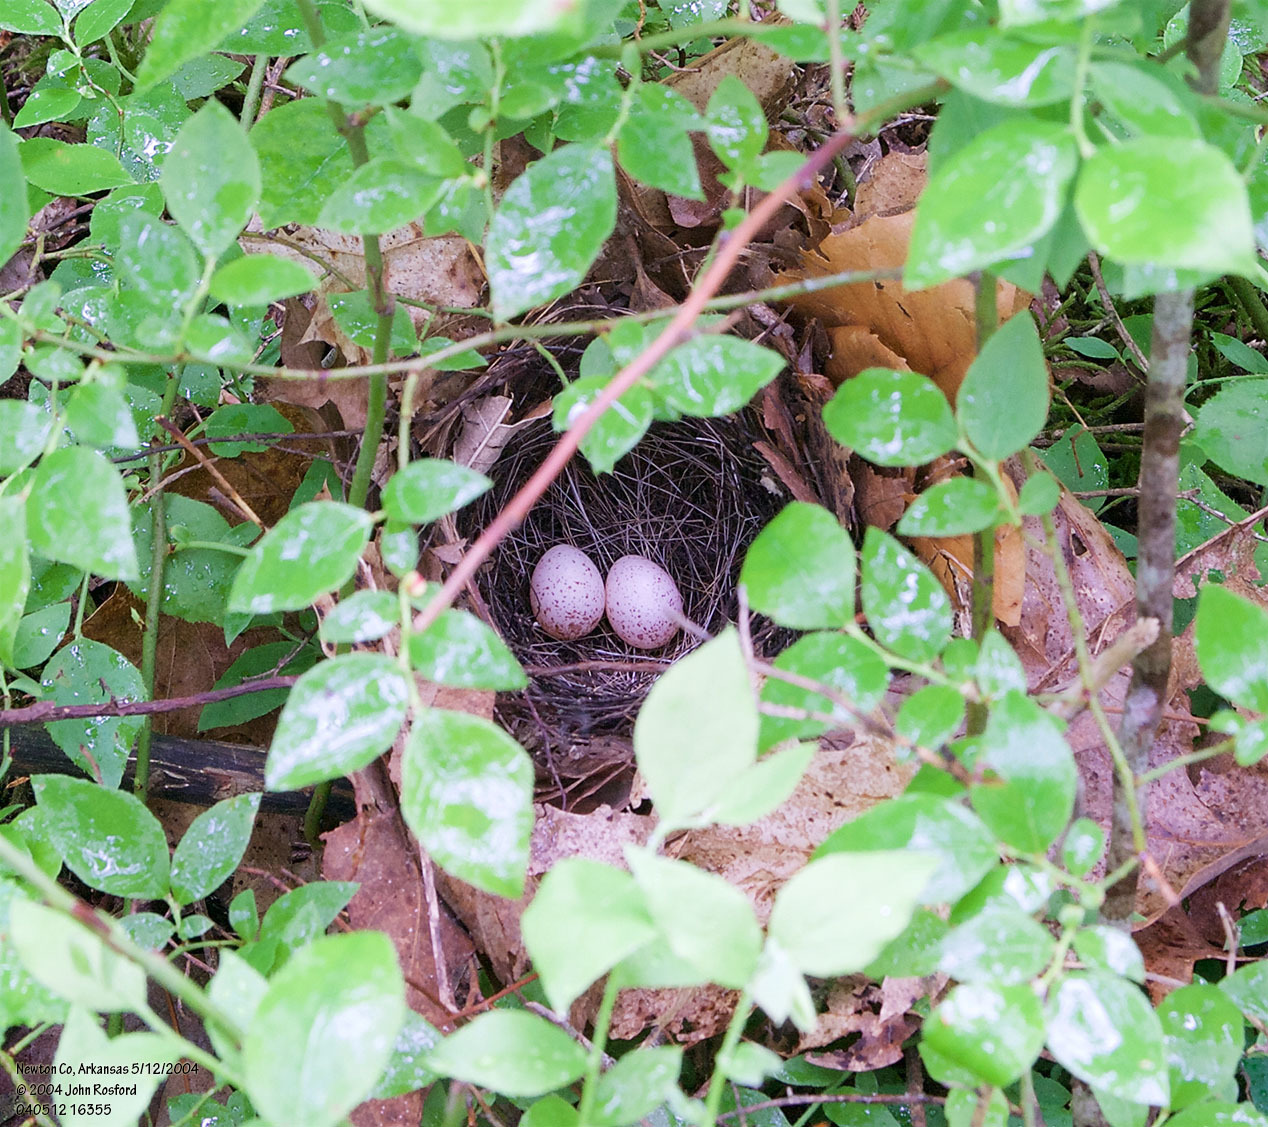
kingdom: Animalia
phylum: Chordata
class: Aves
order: Passeriformes
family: Parulidae
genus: Geothlypis
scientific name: Geothlypis formosa
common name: Kentucky warbler
